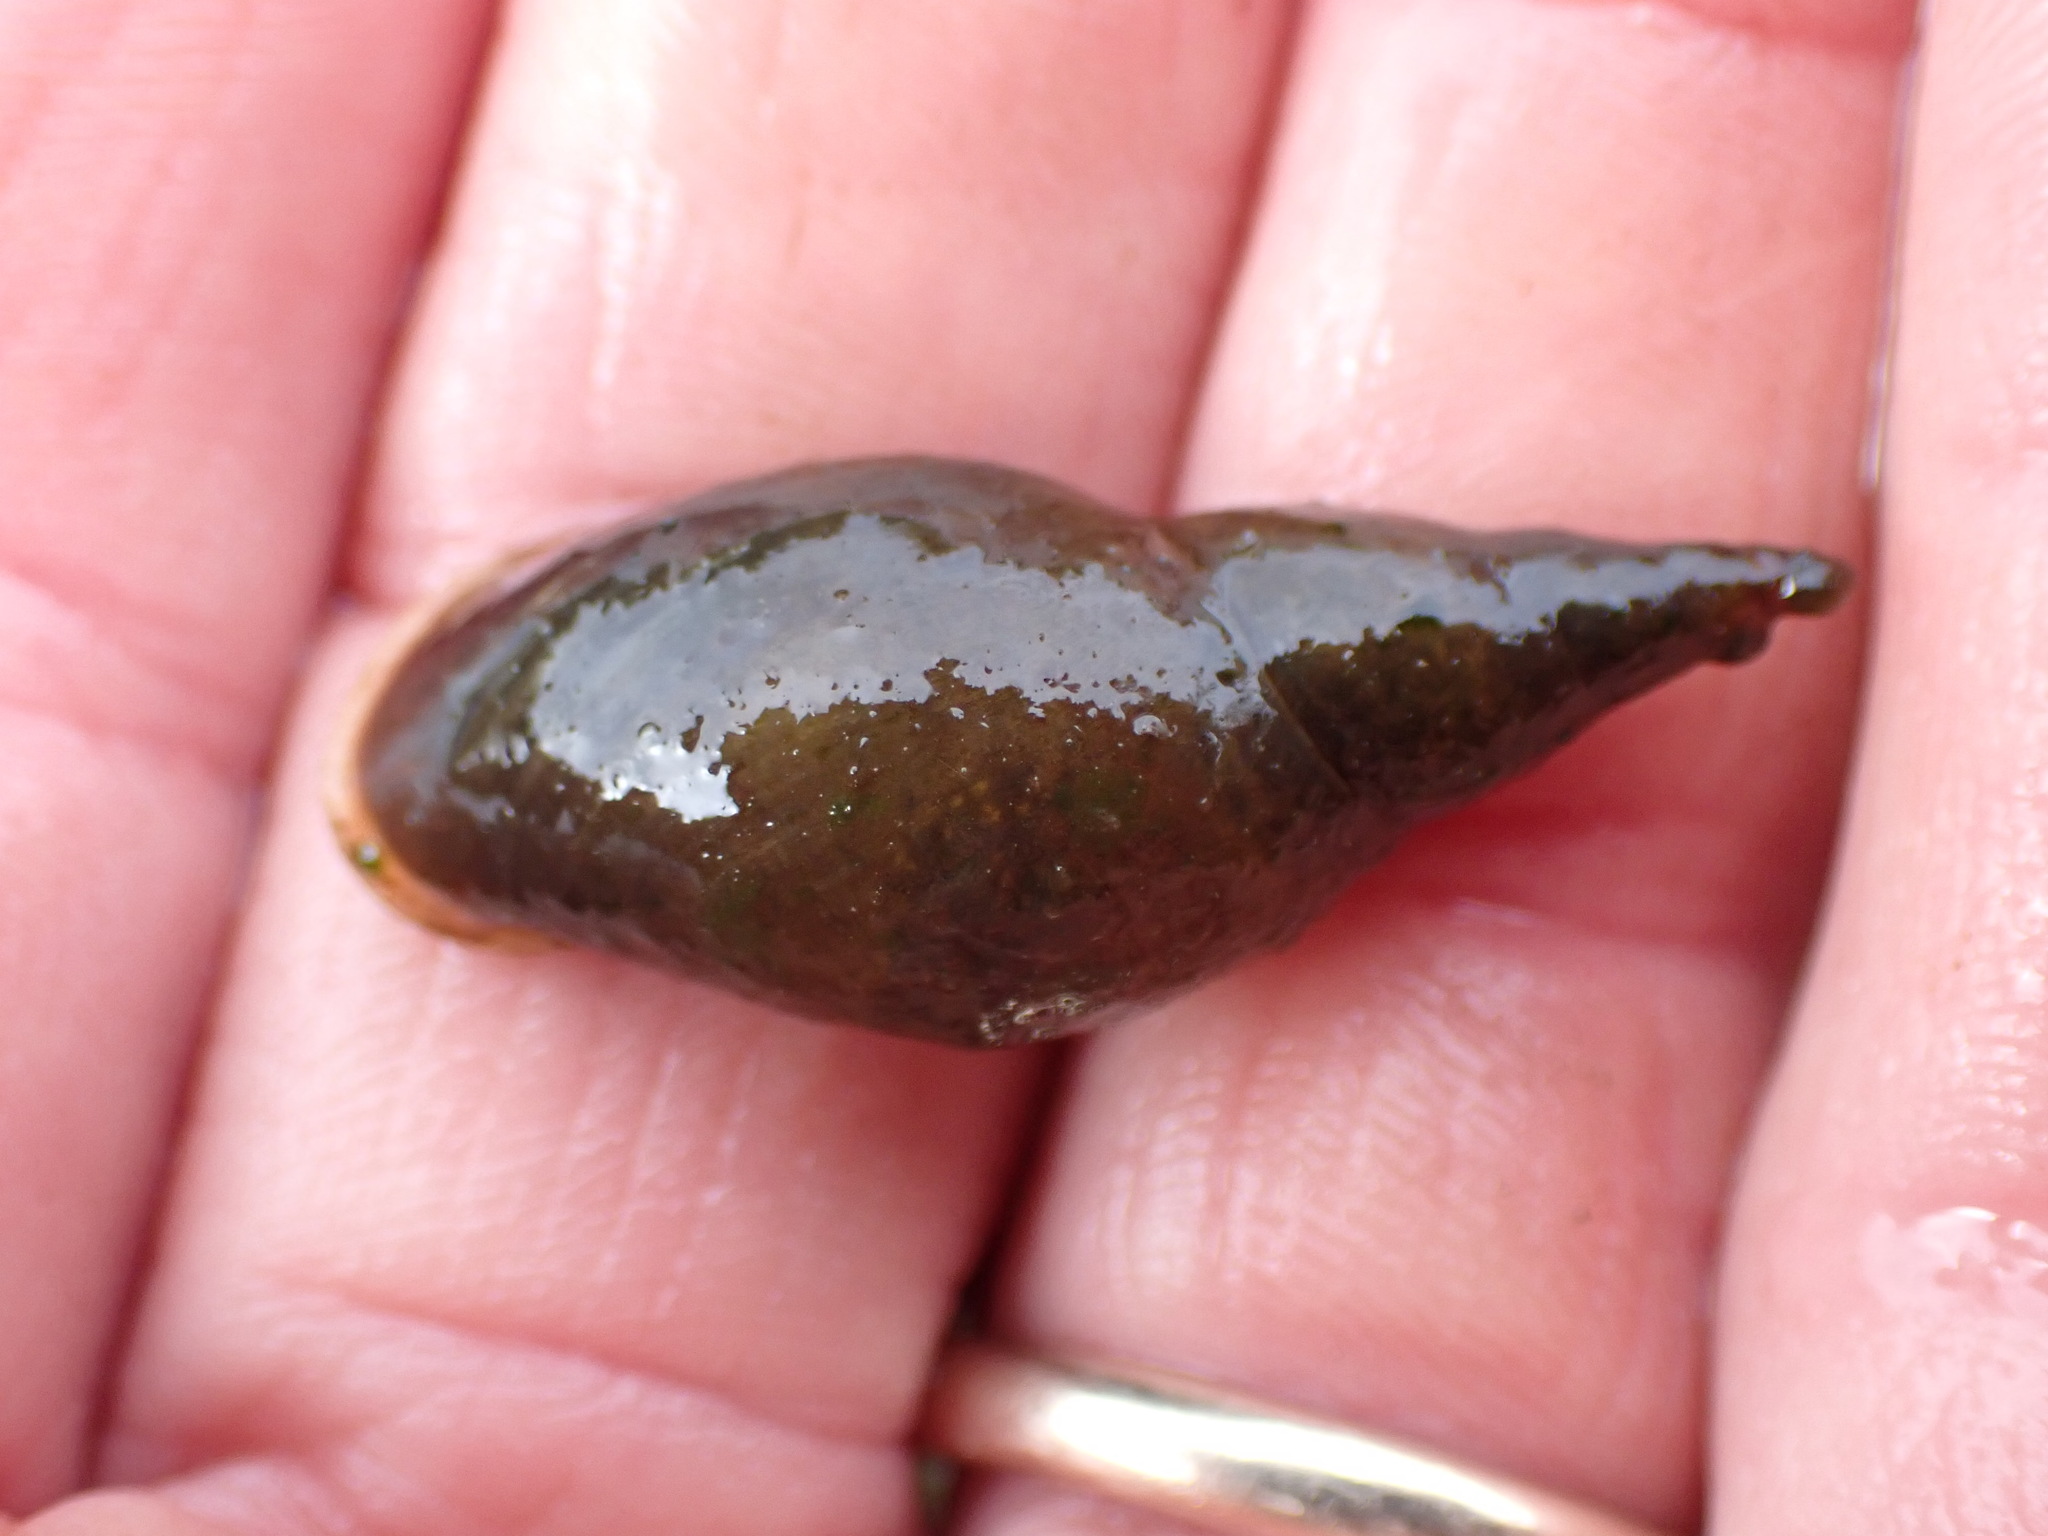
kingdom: Animalia
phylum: Mollusca
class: Gastropoda
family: Lymnaeidae
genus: Lymnaea
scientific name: Lymnaea stagnalis
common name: Great pond snail
